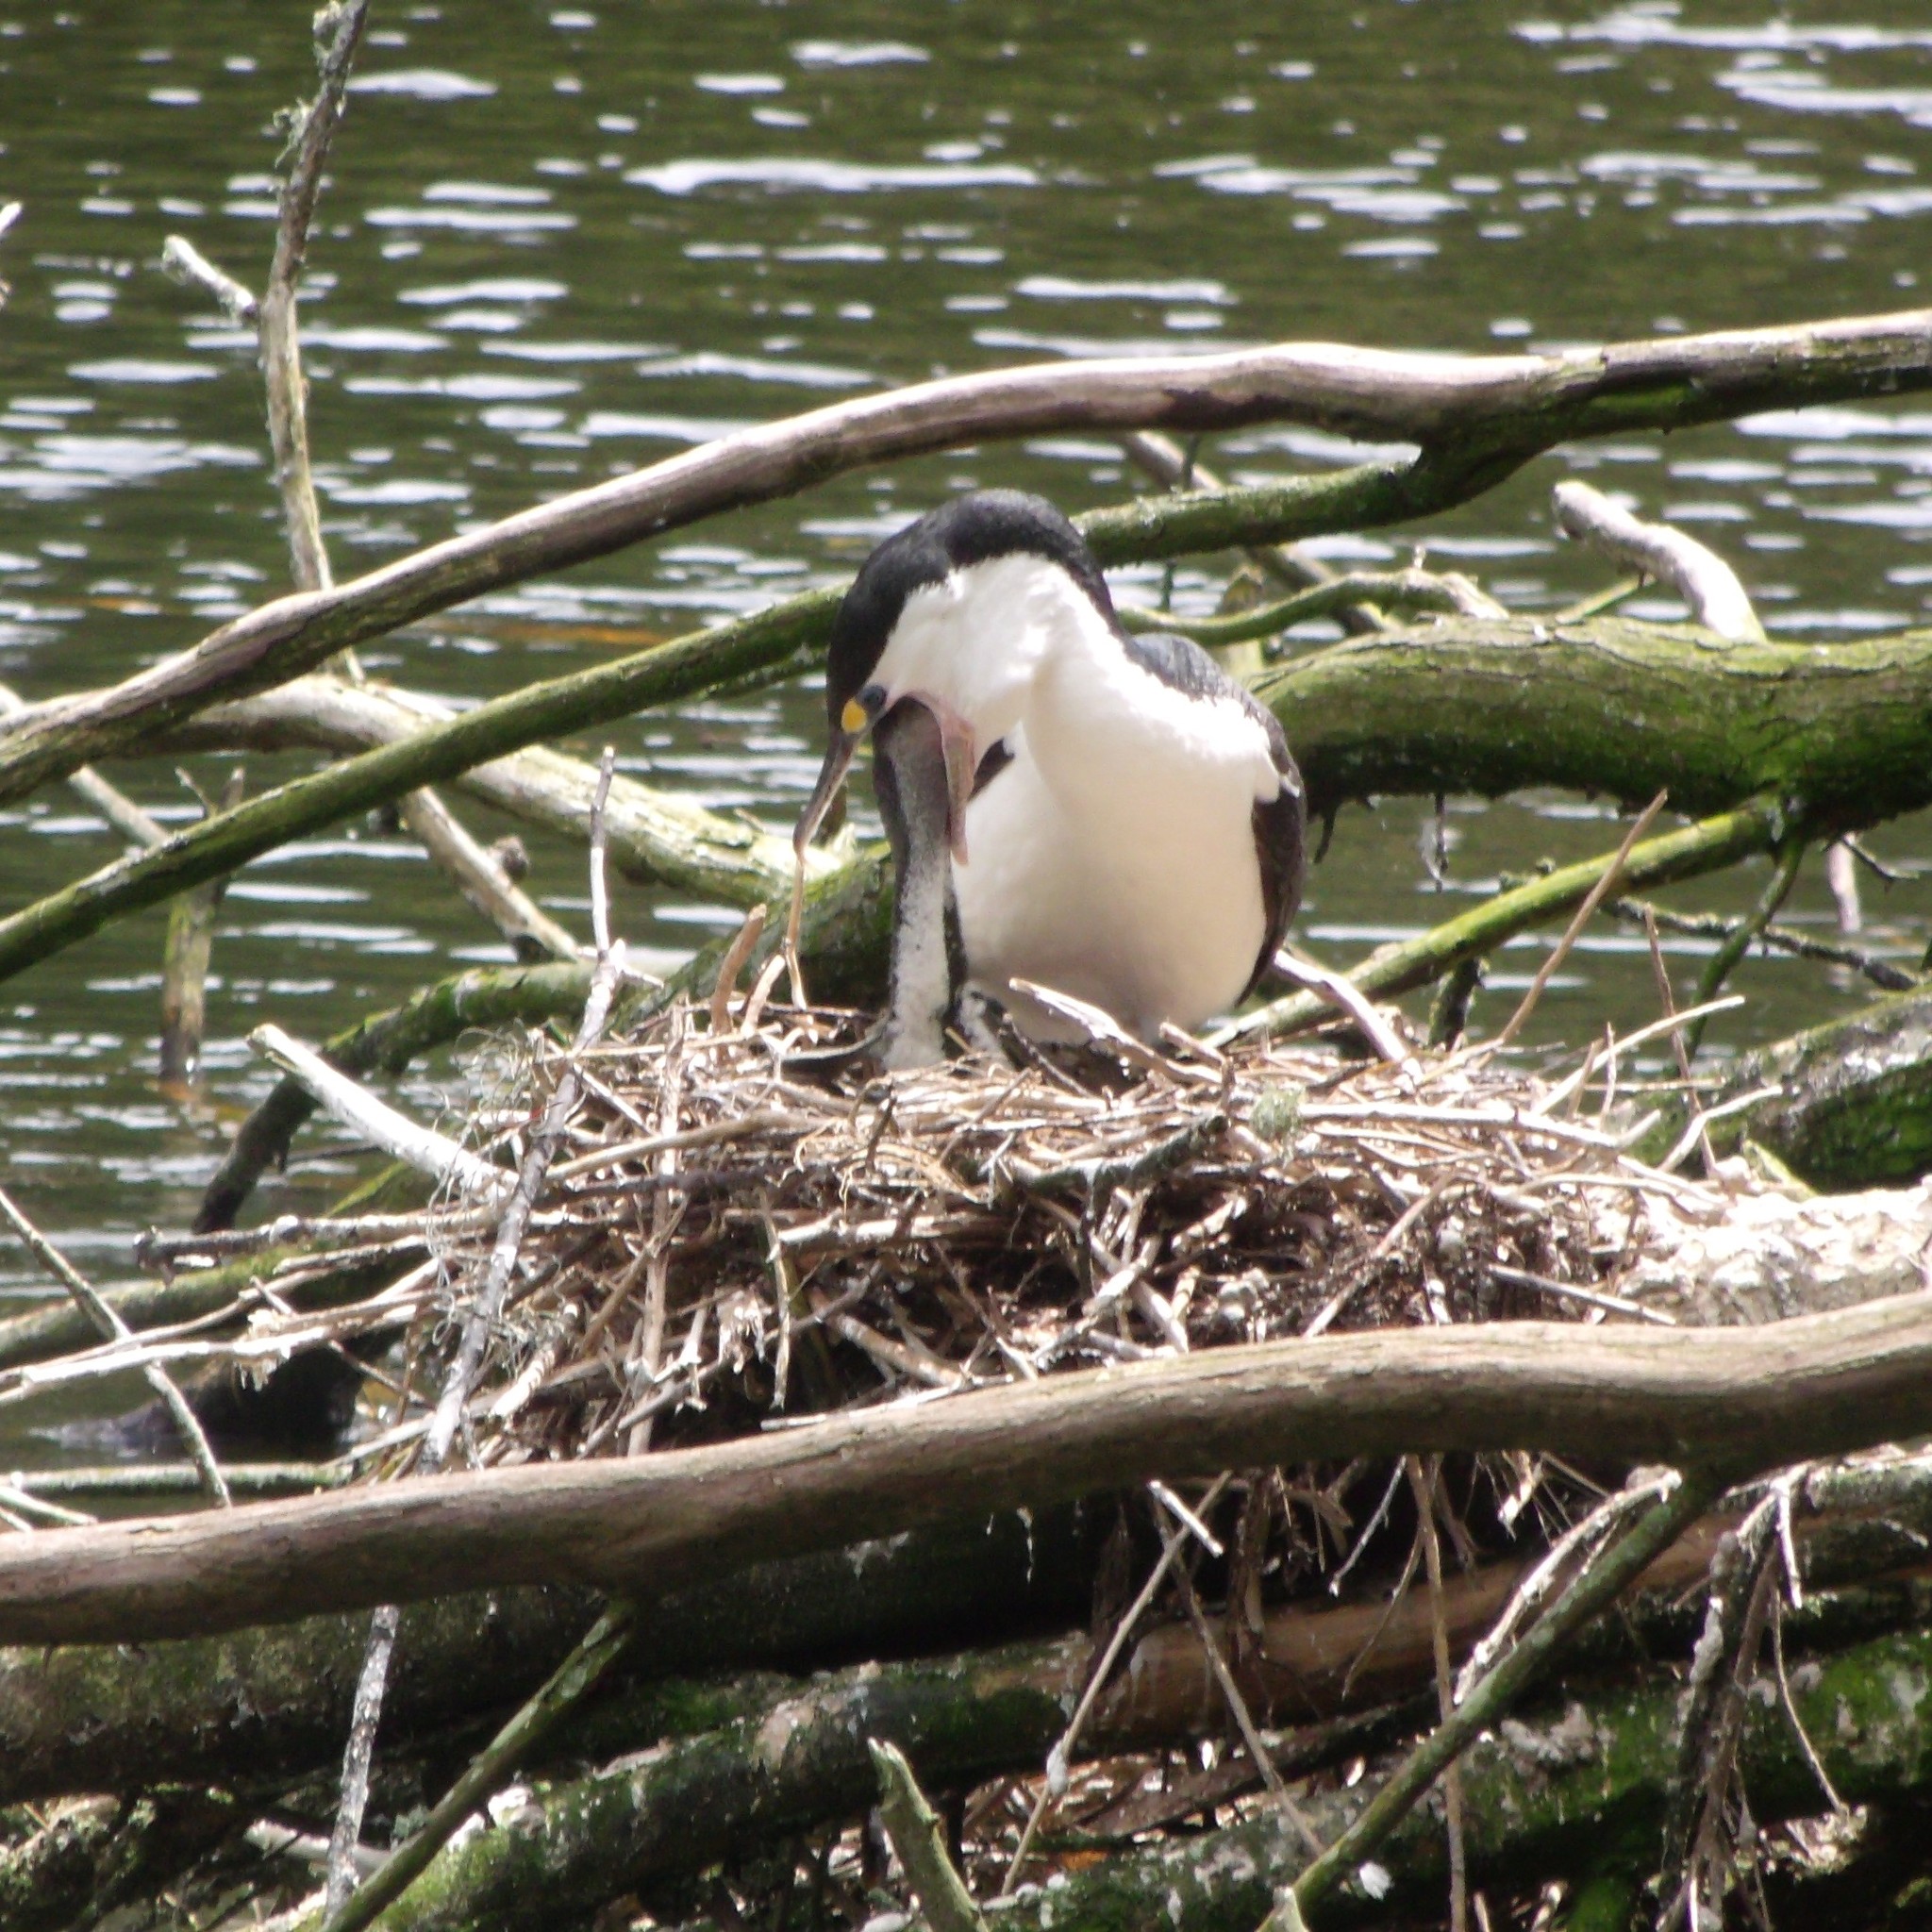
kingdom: Animalia
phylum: Chordata
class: Aves
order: Suliformes
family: Phalacrocoracidae
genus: Phalacrocorax
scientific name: Phalacrocorax varius
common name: Pied cormorant
